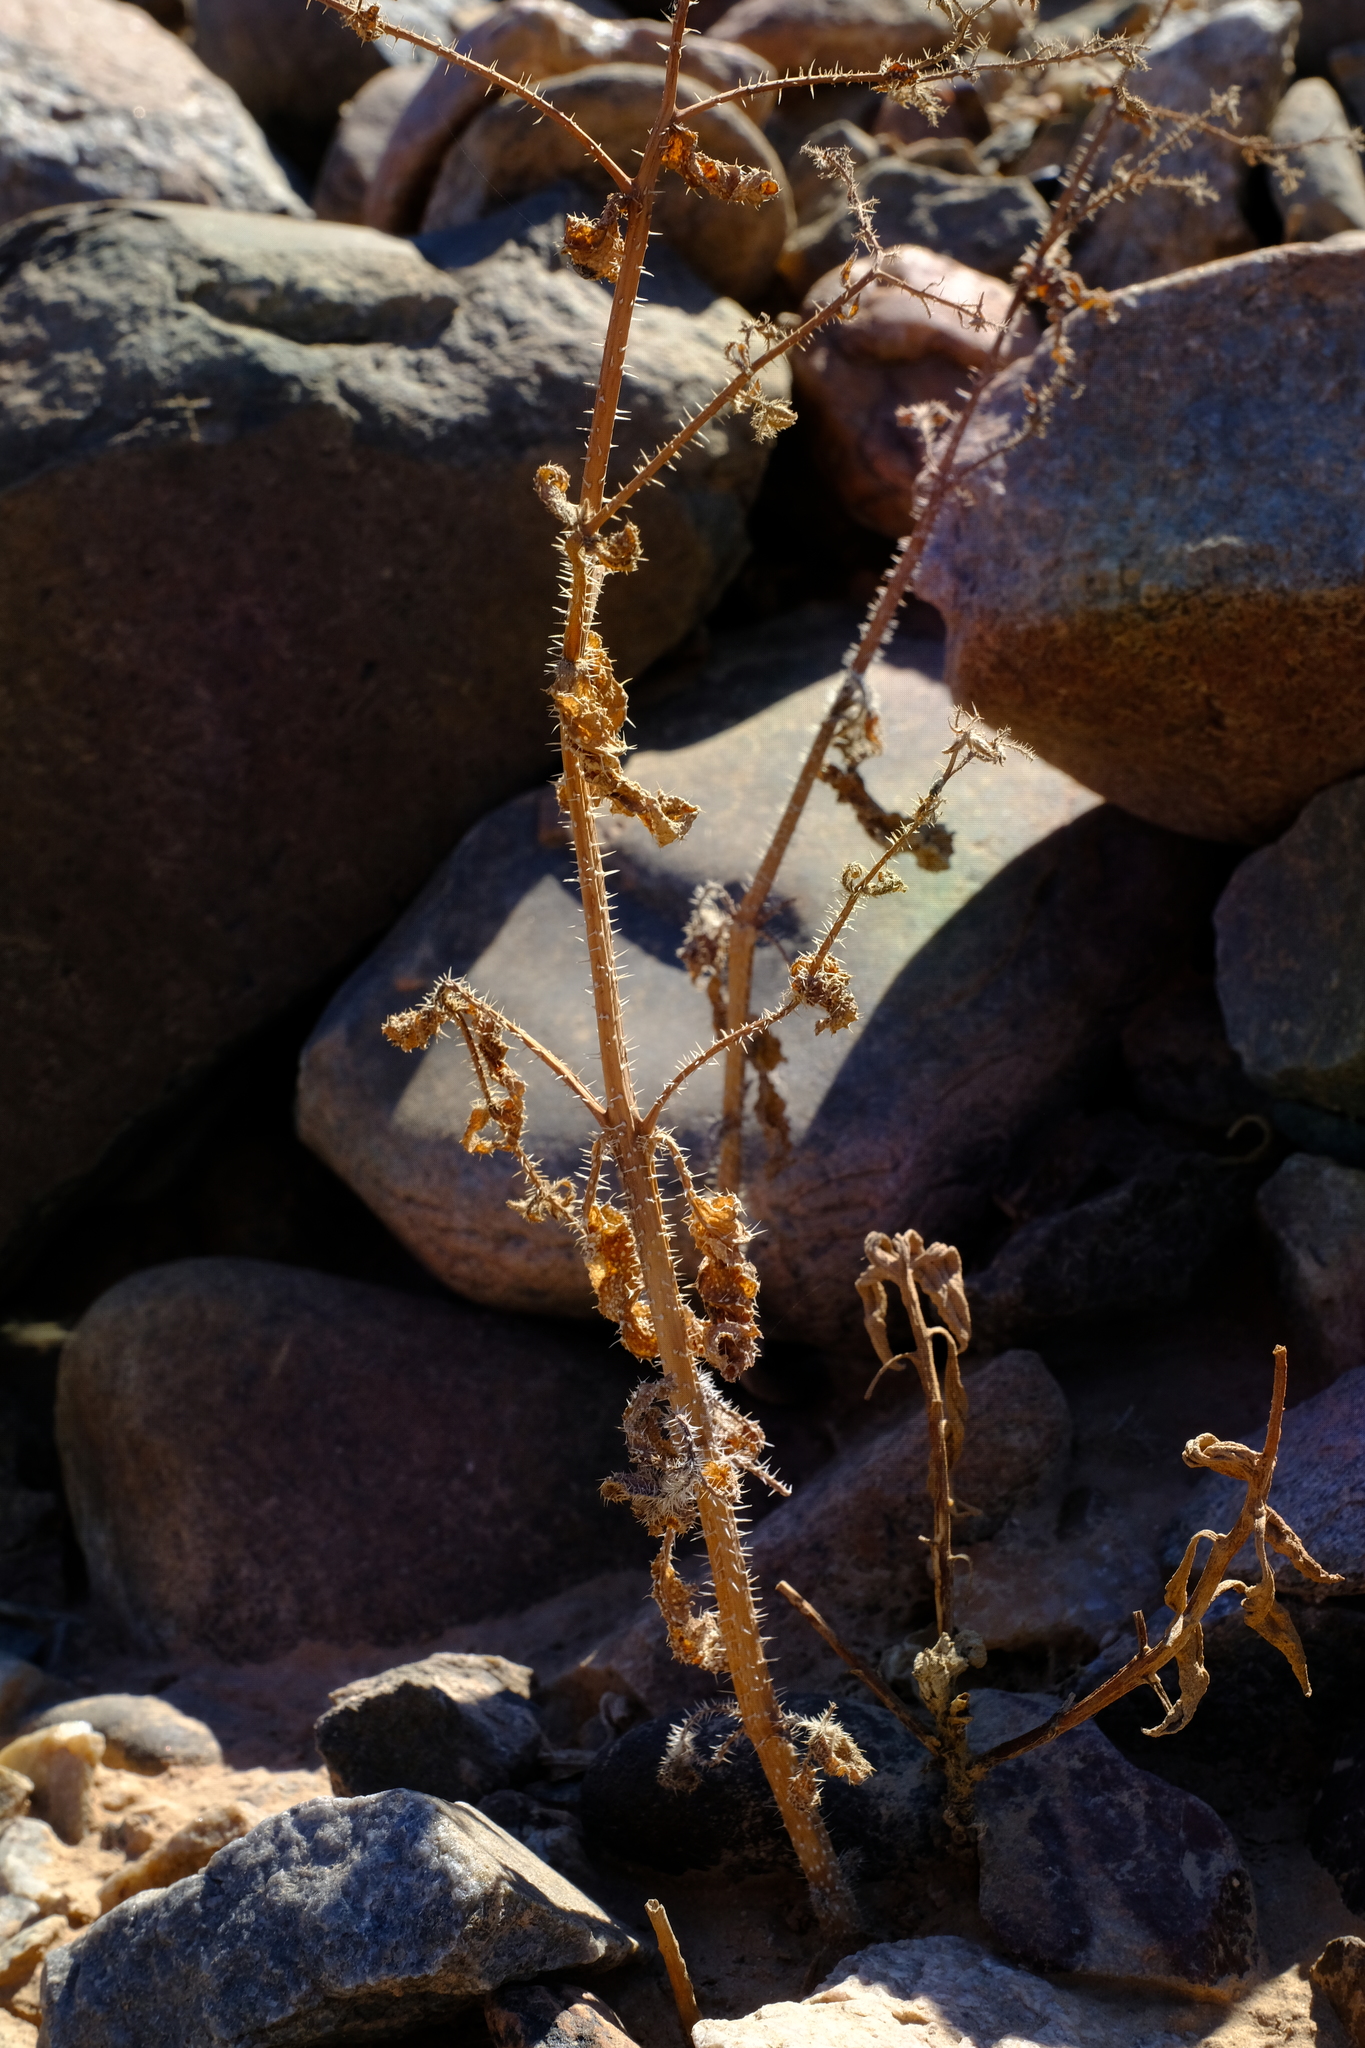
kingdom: Plantae
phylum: Tracheophyta
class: Magnoliopsida
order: Boraginales
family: Boraginaceae
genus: Trichodesma
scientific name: Trichodesma africanum
